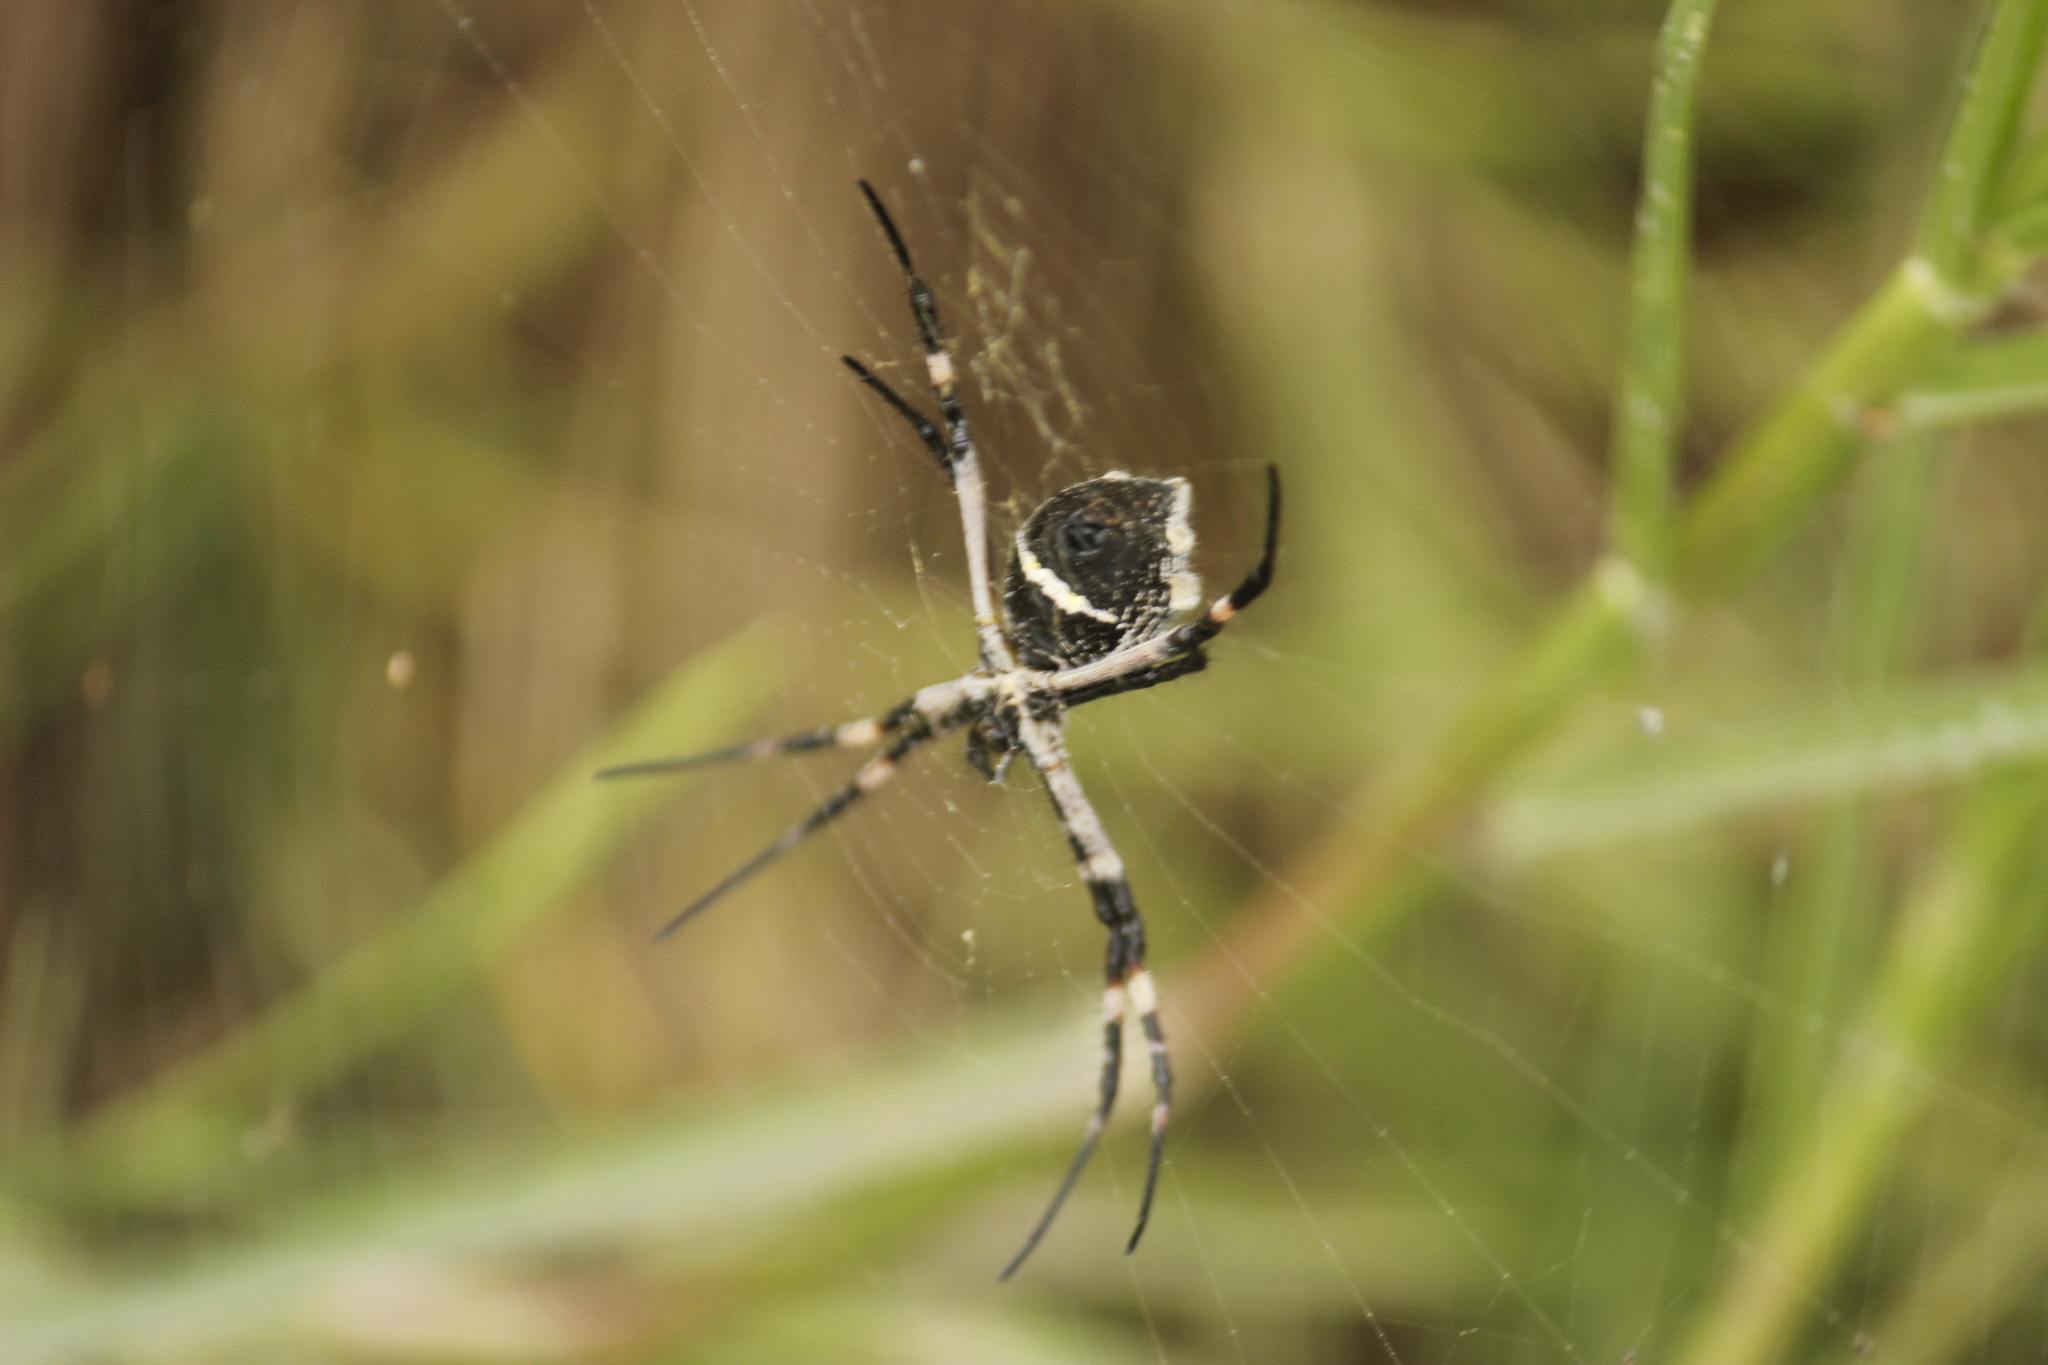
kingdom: Animalia
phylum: Arthropoda
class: Arachnida
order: Araneae
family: Araneidae
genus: Argiope
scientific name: Argiope argentata
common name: Orb weavers
